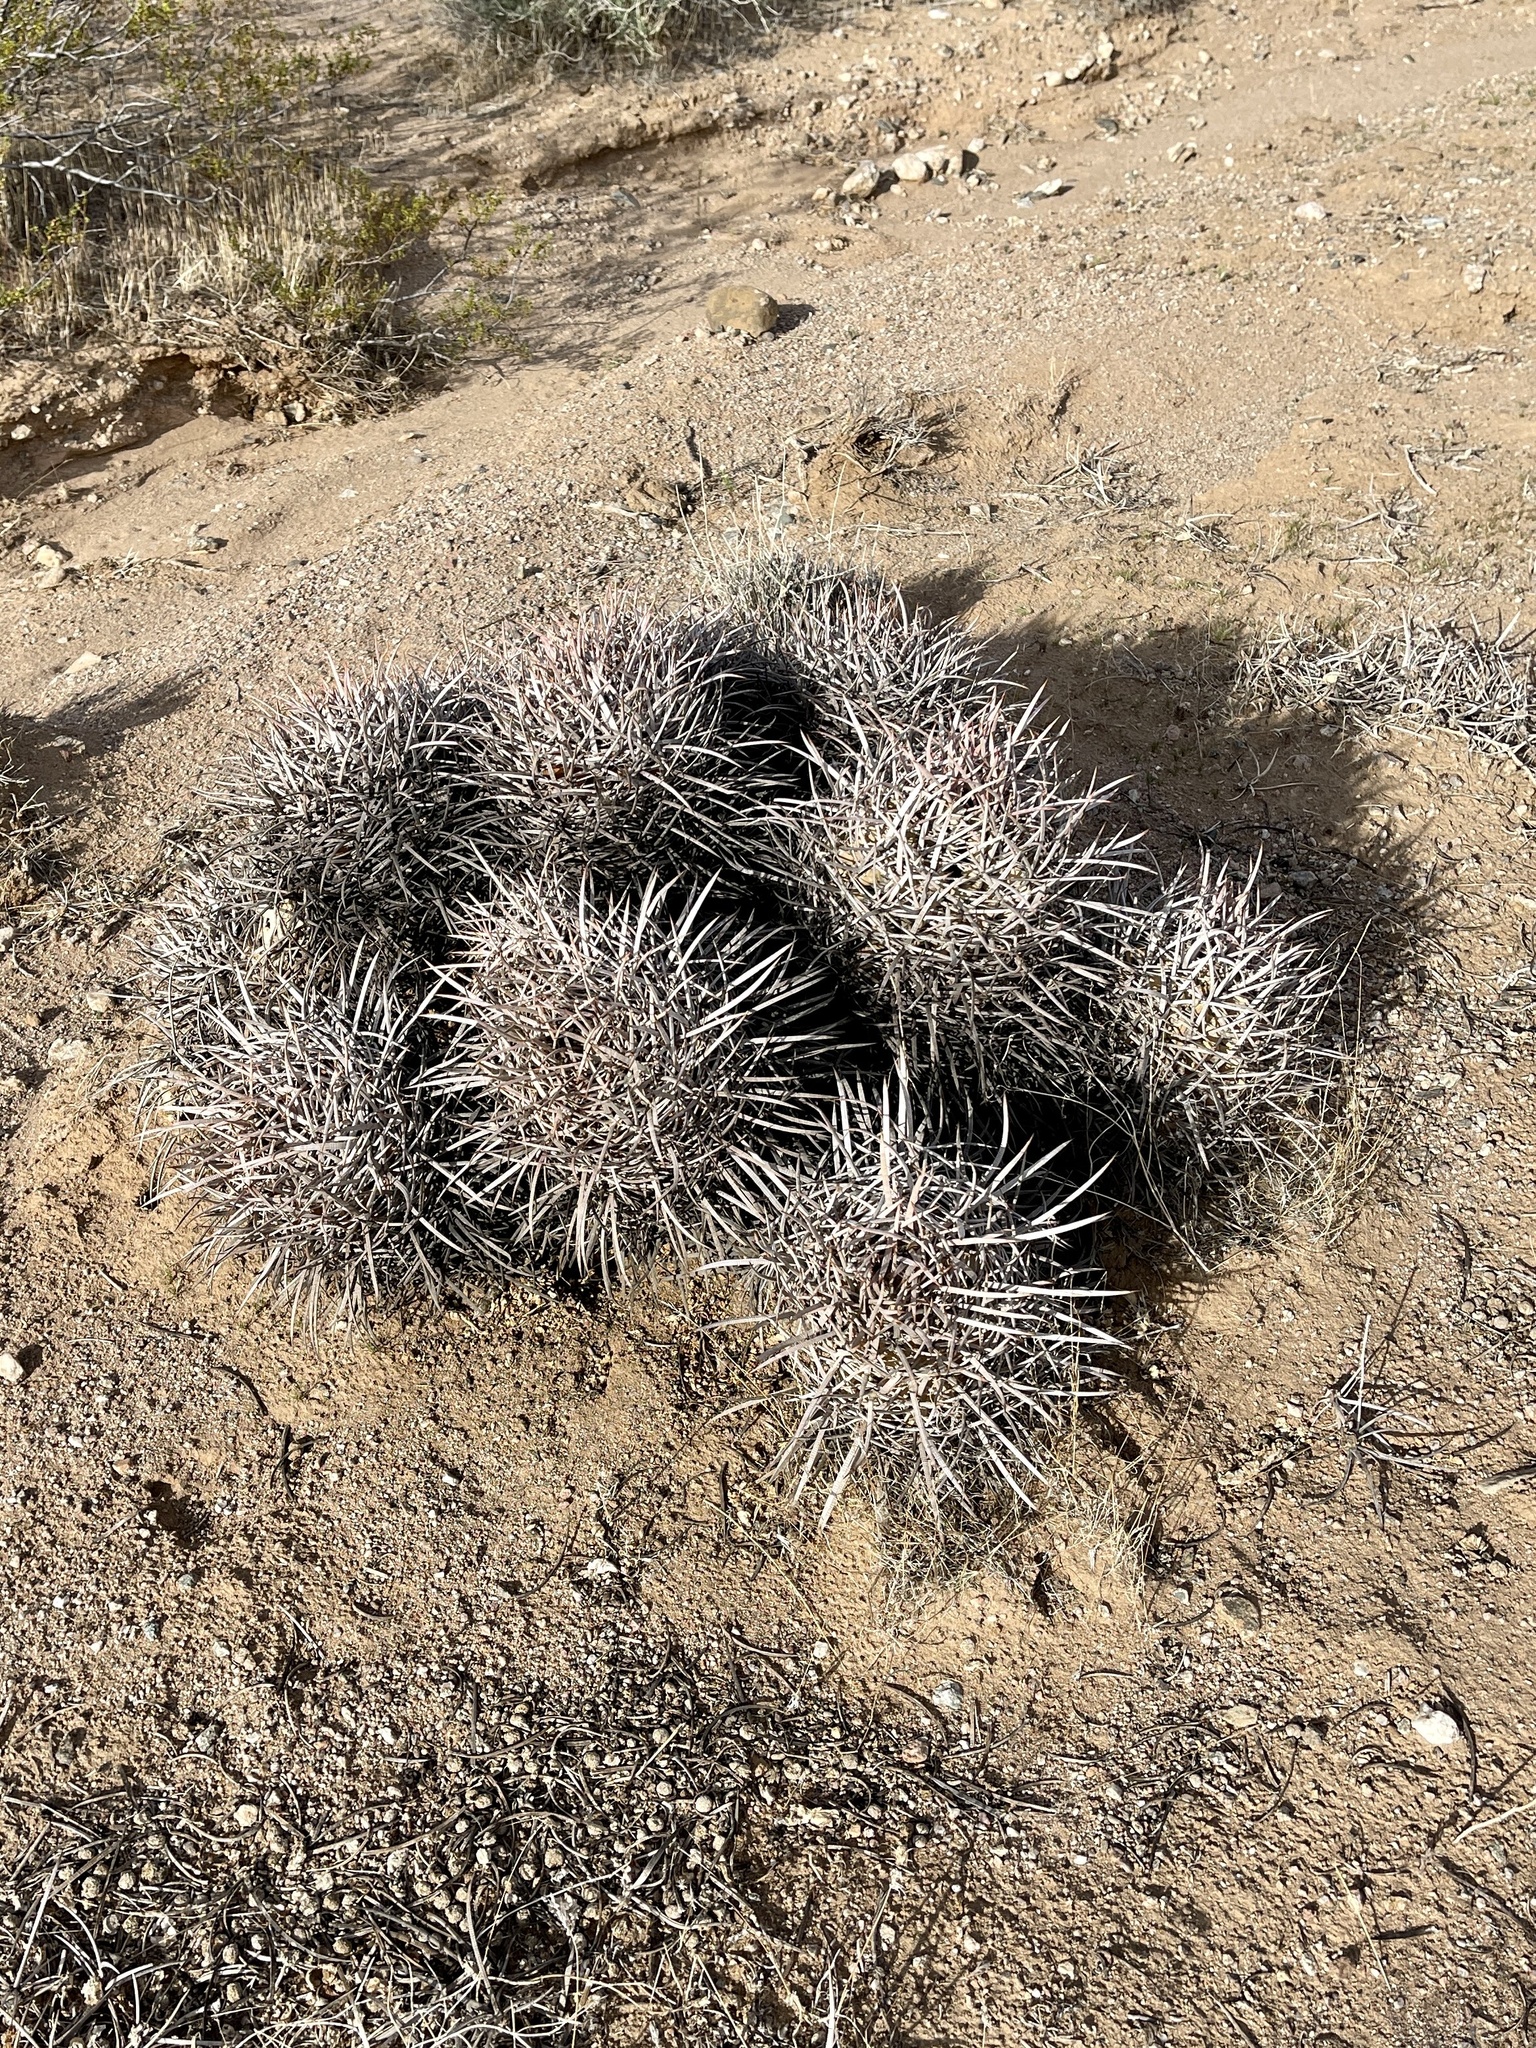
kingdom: Plantae
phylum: Tracheophyta
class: Magnoliopsida
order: Caryophyllales
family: Cactaceae
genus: Echinocactus
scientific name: Echinocactus polycephalus
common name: Cottontop cactus
